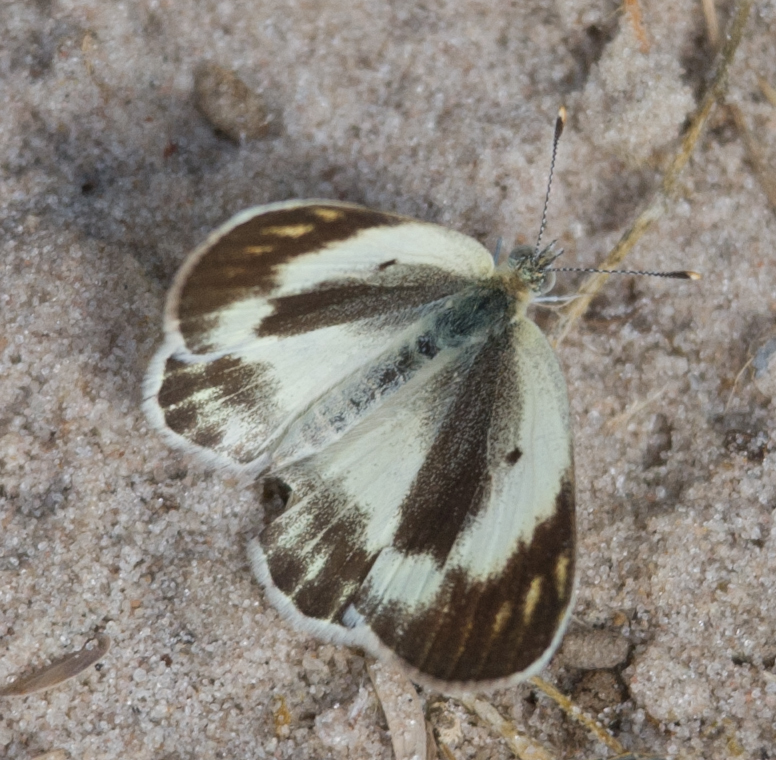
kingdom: Animalia
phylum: Arthropoda
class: Insecta
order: Lepidoptera
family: Pieridae
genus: Colotis
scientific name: Colotis evagore
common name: Desert orange-tip
